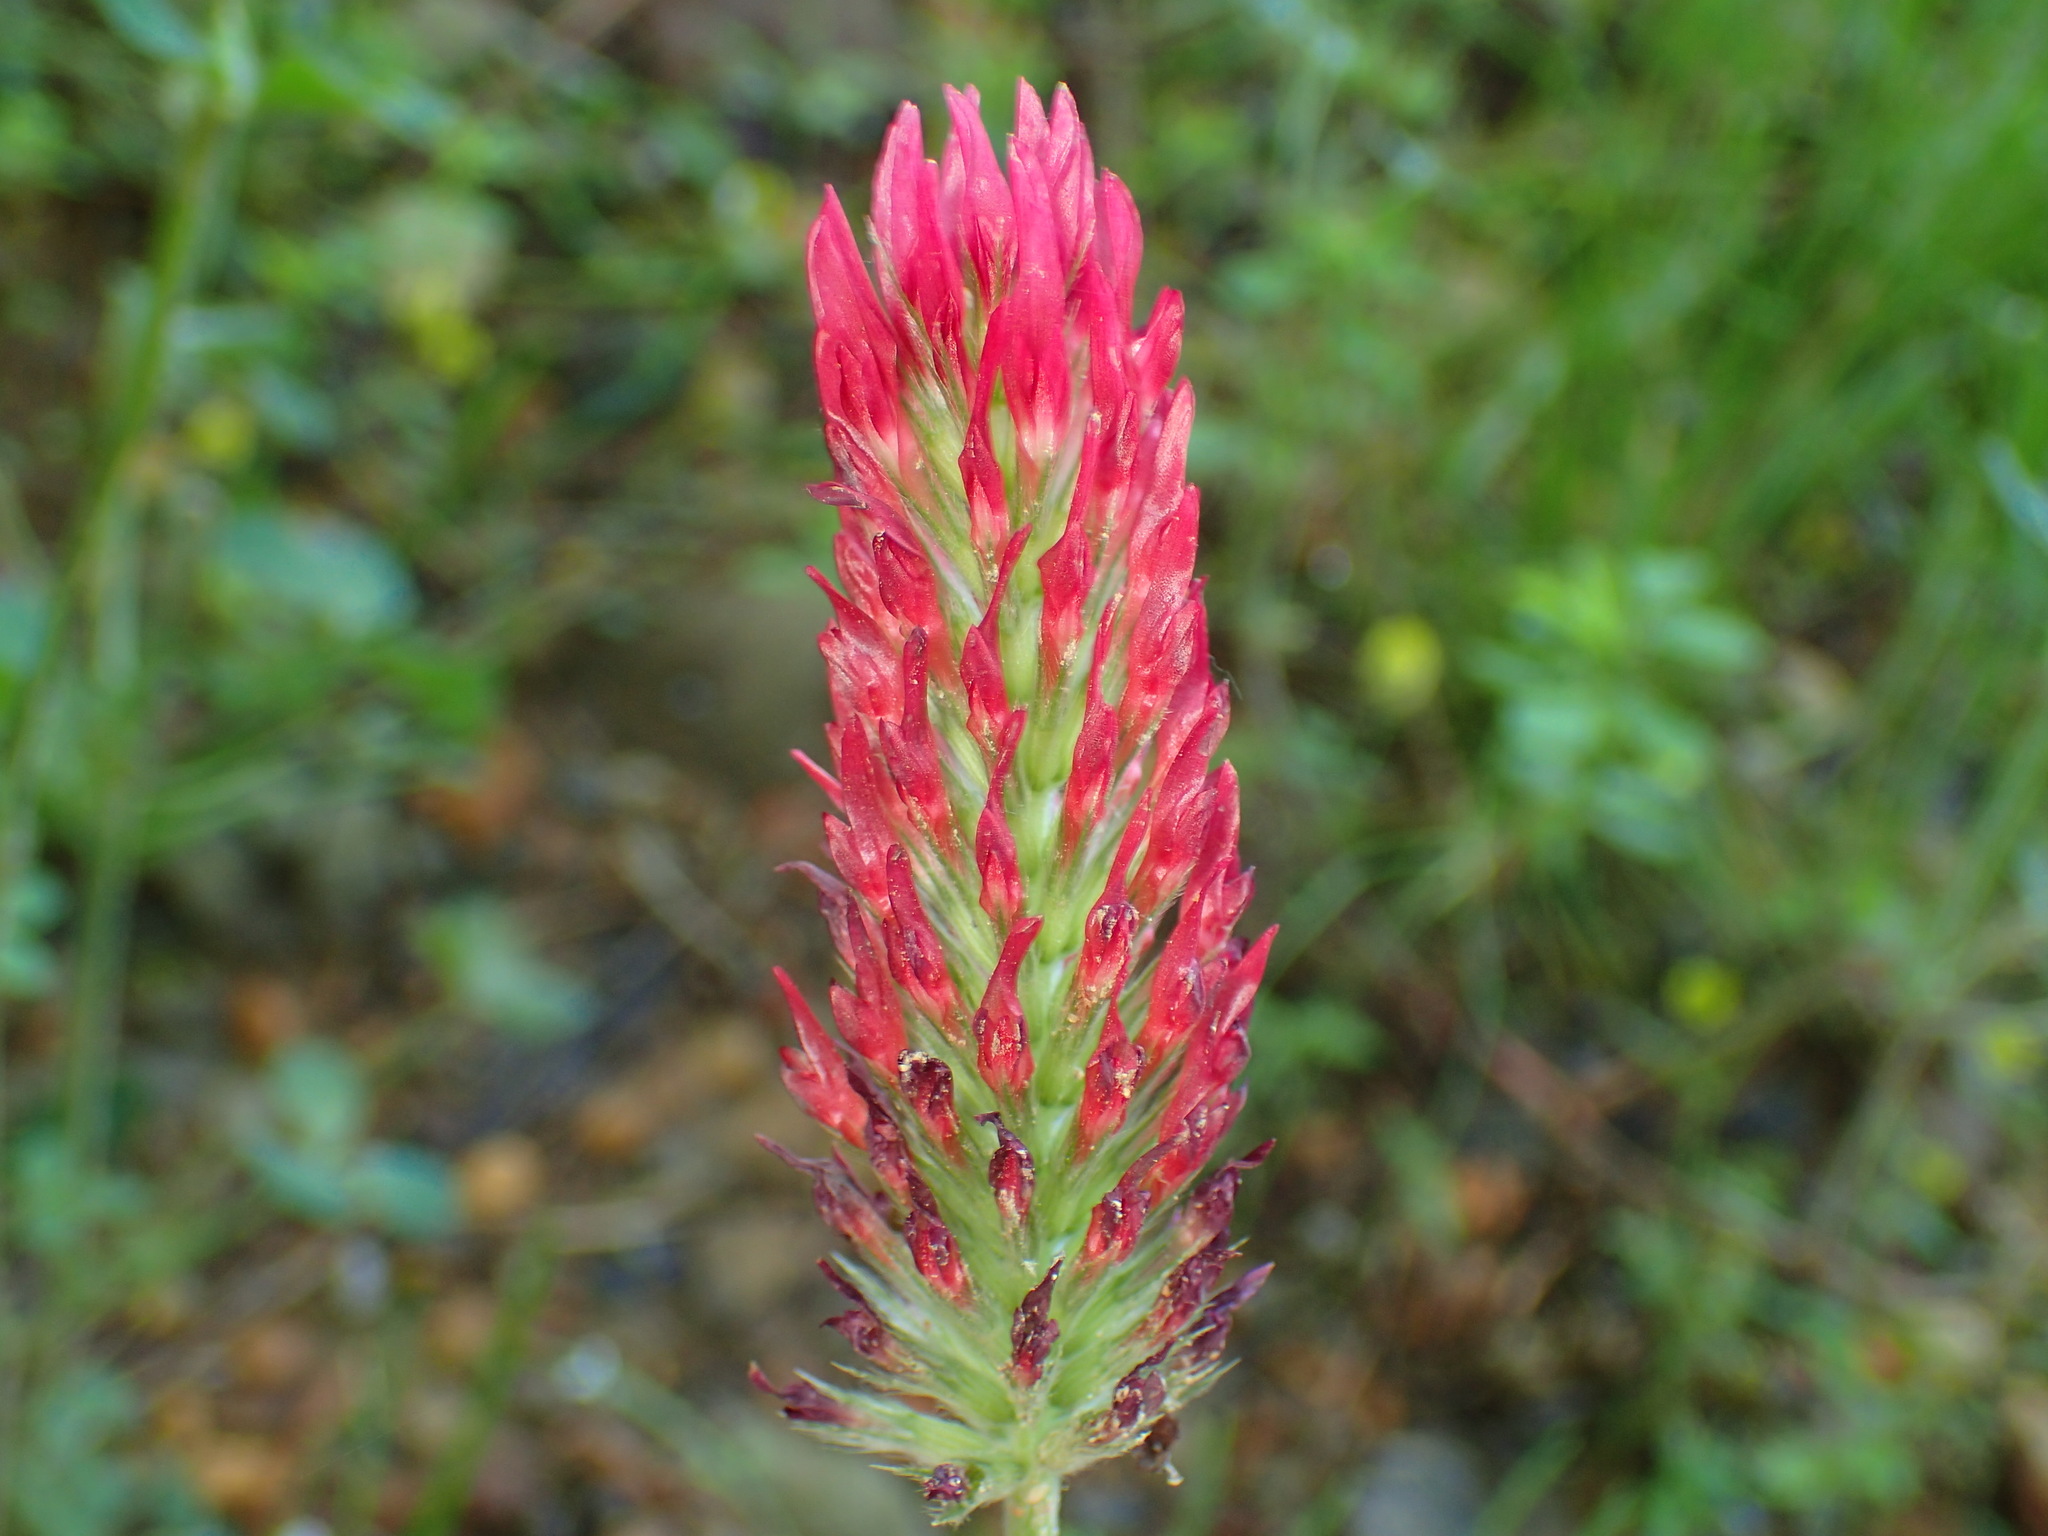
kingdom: Plantae
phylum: Tracheophyta
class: Magnoliopsida
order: Fabales
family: Fabaceae
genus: Trifolium
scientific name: Trifolium incarnatum
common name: Crimson clover
